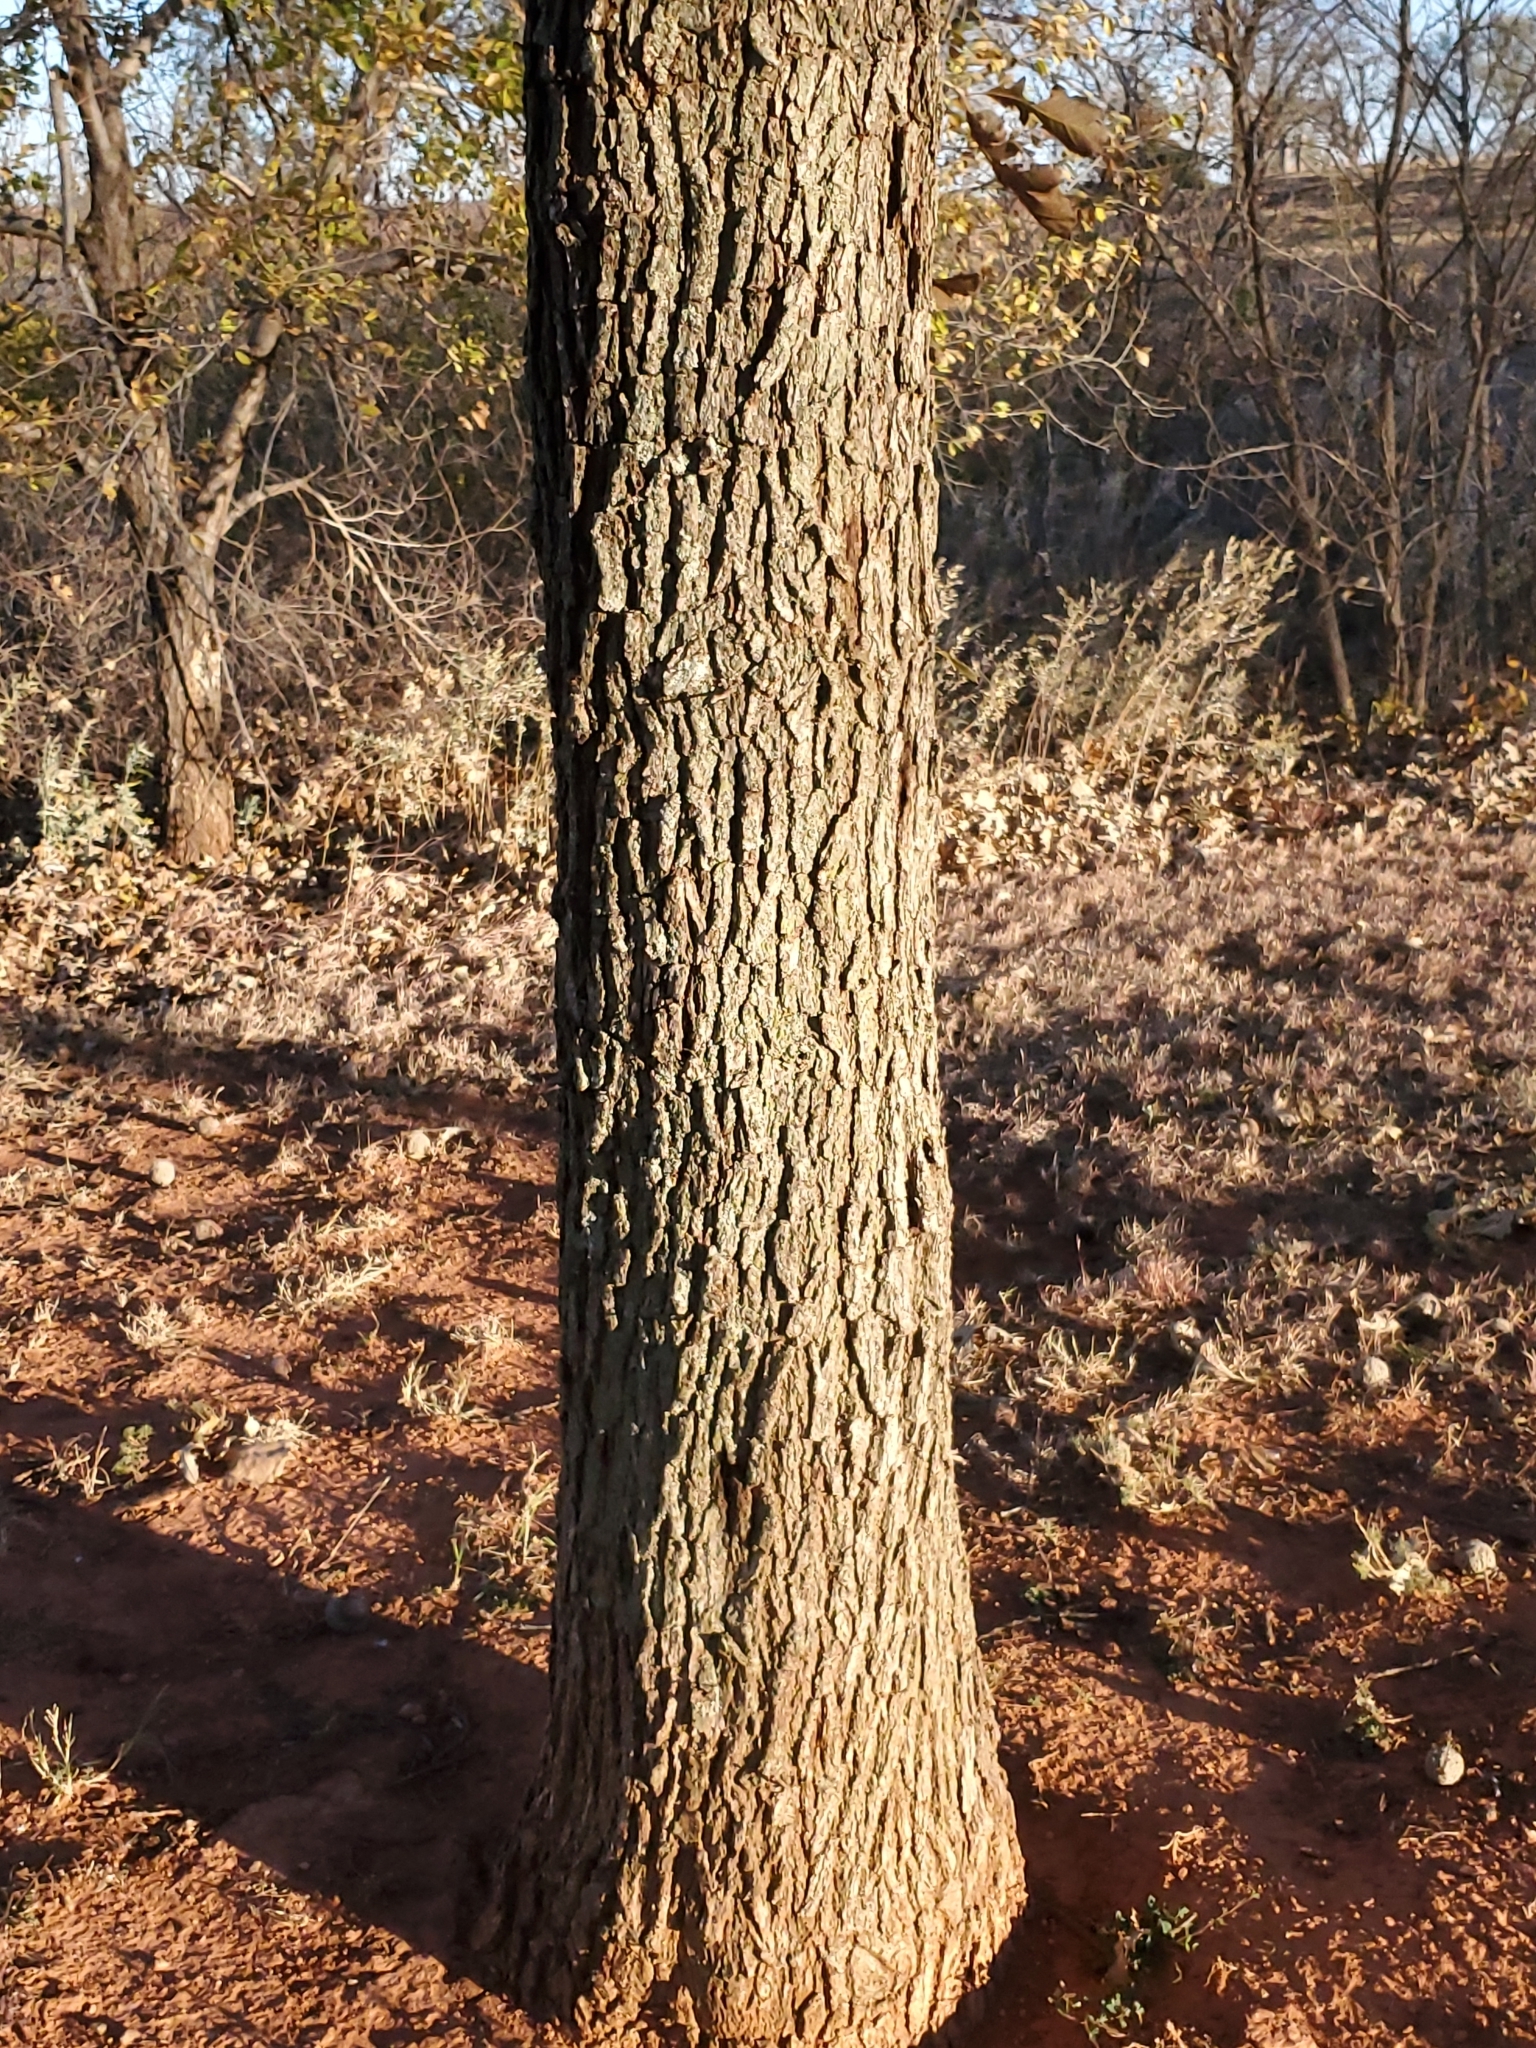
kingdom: Plantae
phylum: Tracheophyta
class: Magnoliopsida
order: Fagales
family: Fagaceae
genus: Quercus
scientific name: Quercus macrocarpa
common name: Bur oak
